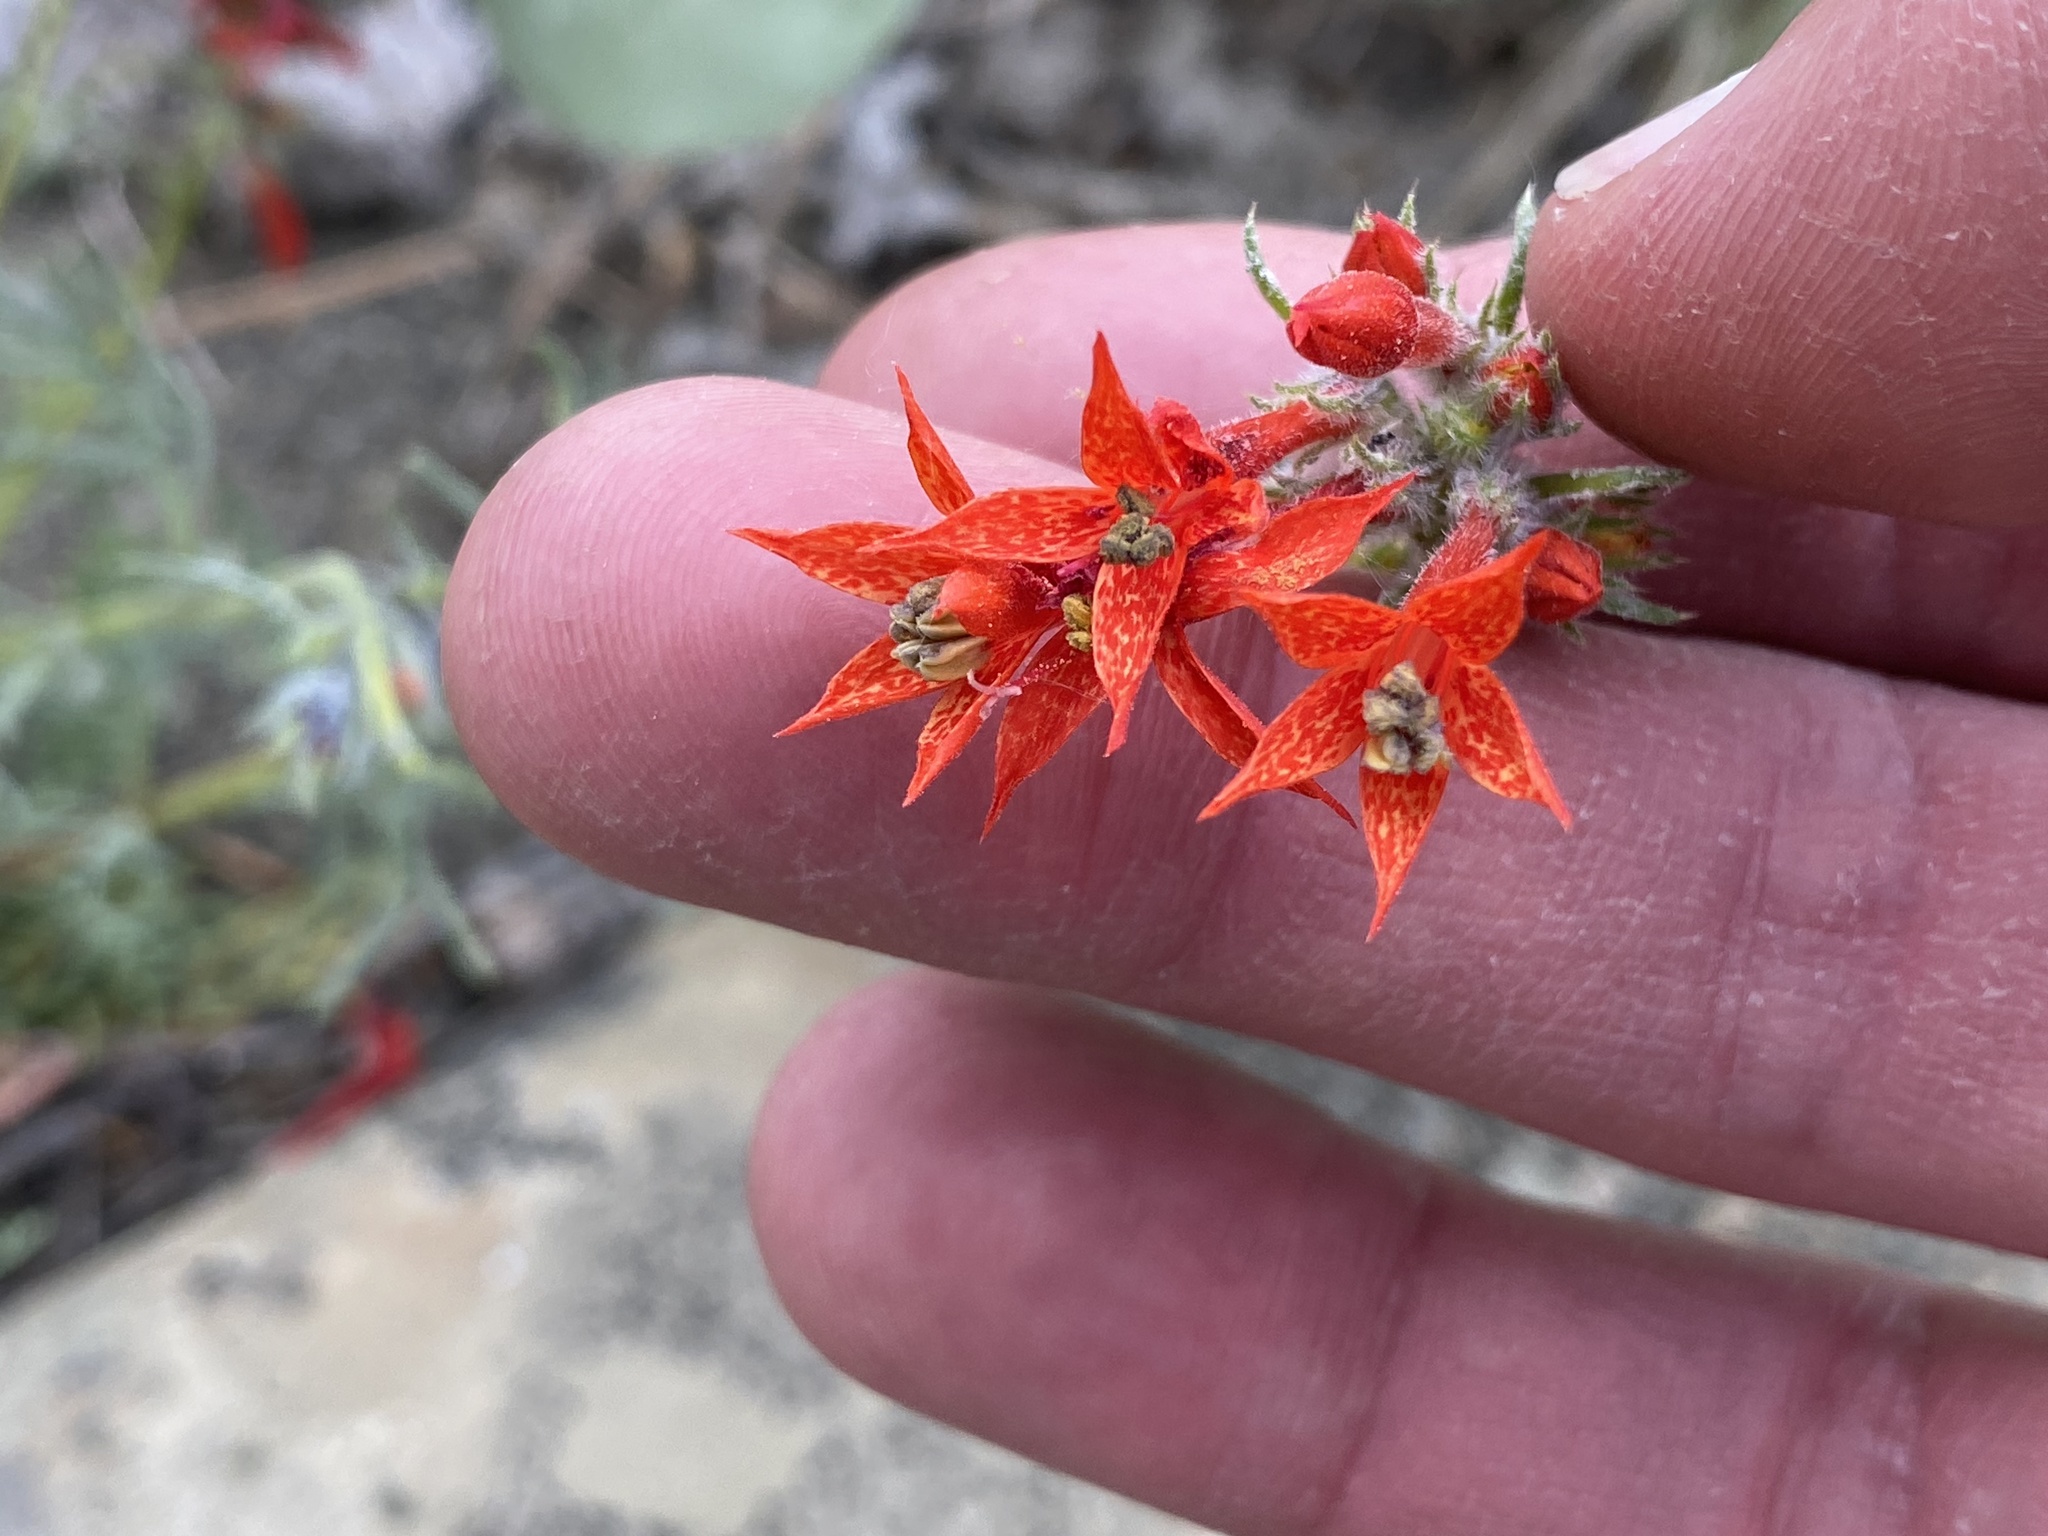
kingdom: Plantae
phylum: Tracheophyta
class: Magnoliopsida
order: Ericales
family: Polemoniaceae
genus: Ipomopsis
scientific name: Ipomopsis aggregata
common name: Scarlet gilia
